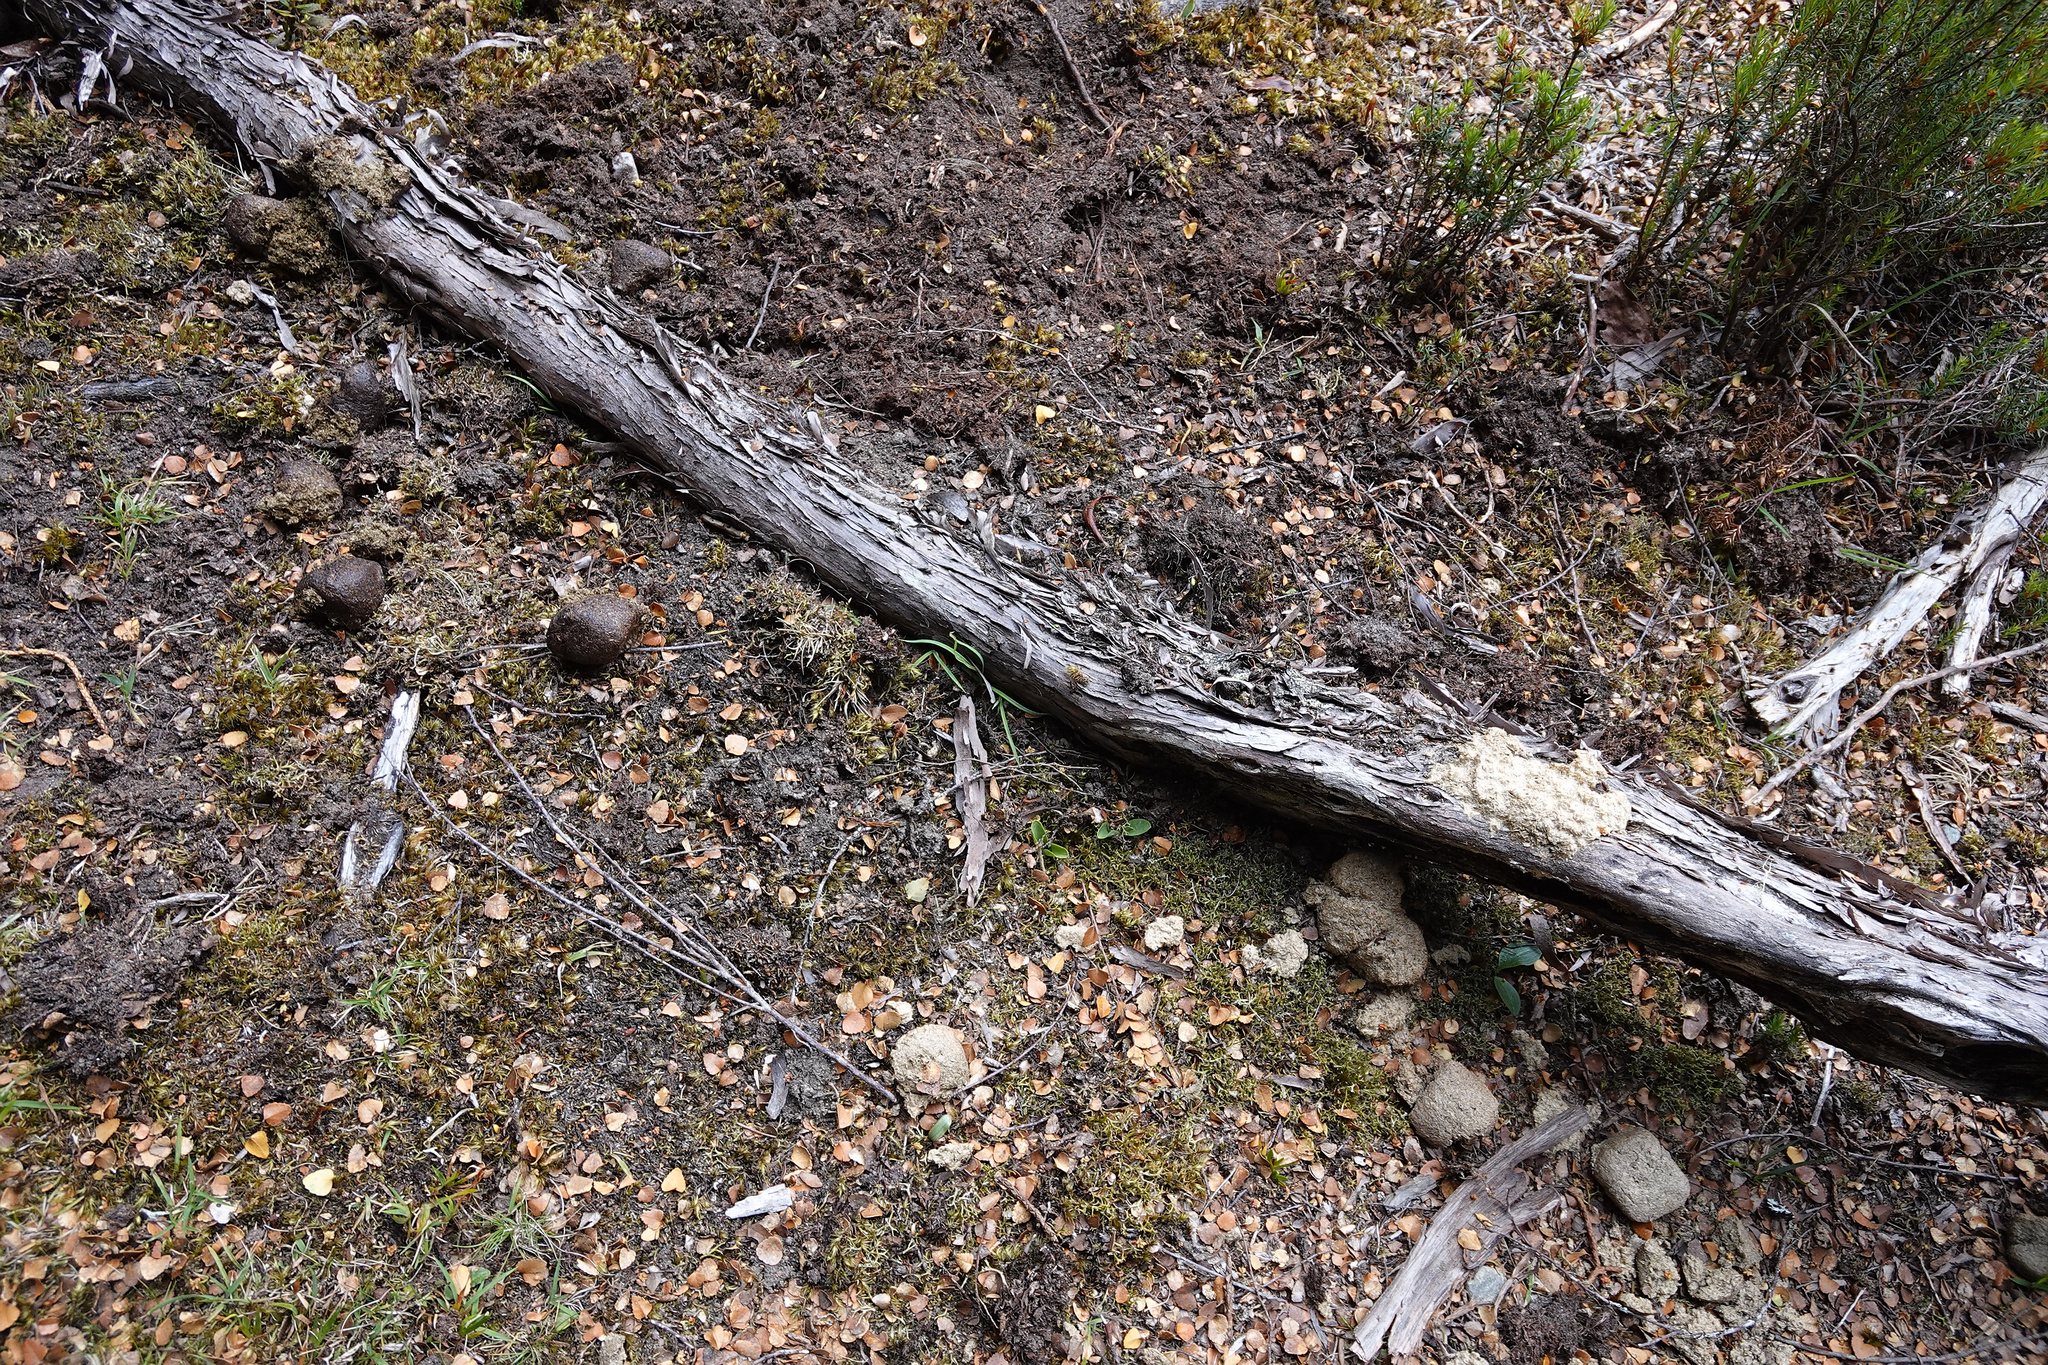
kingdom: Animalia
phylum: Chordata
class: Mammalia
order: Diprotodontia
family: Vombatidae
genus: Vombatus
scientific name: Vombatus ursinus
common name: Common wombat
